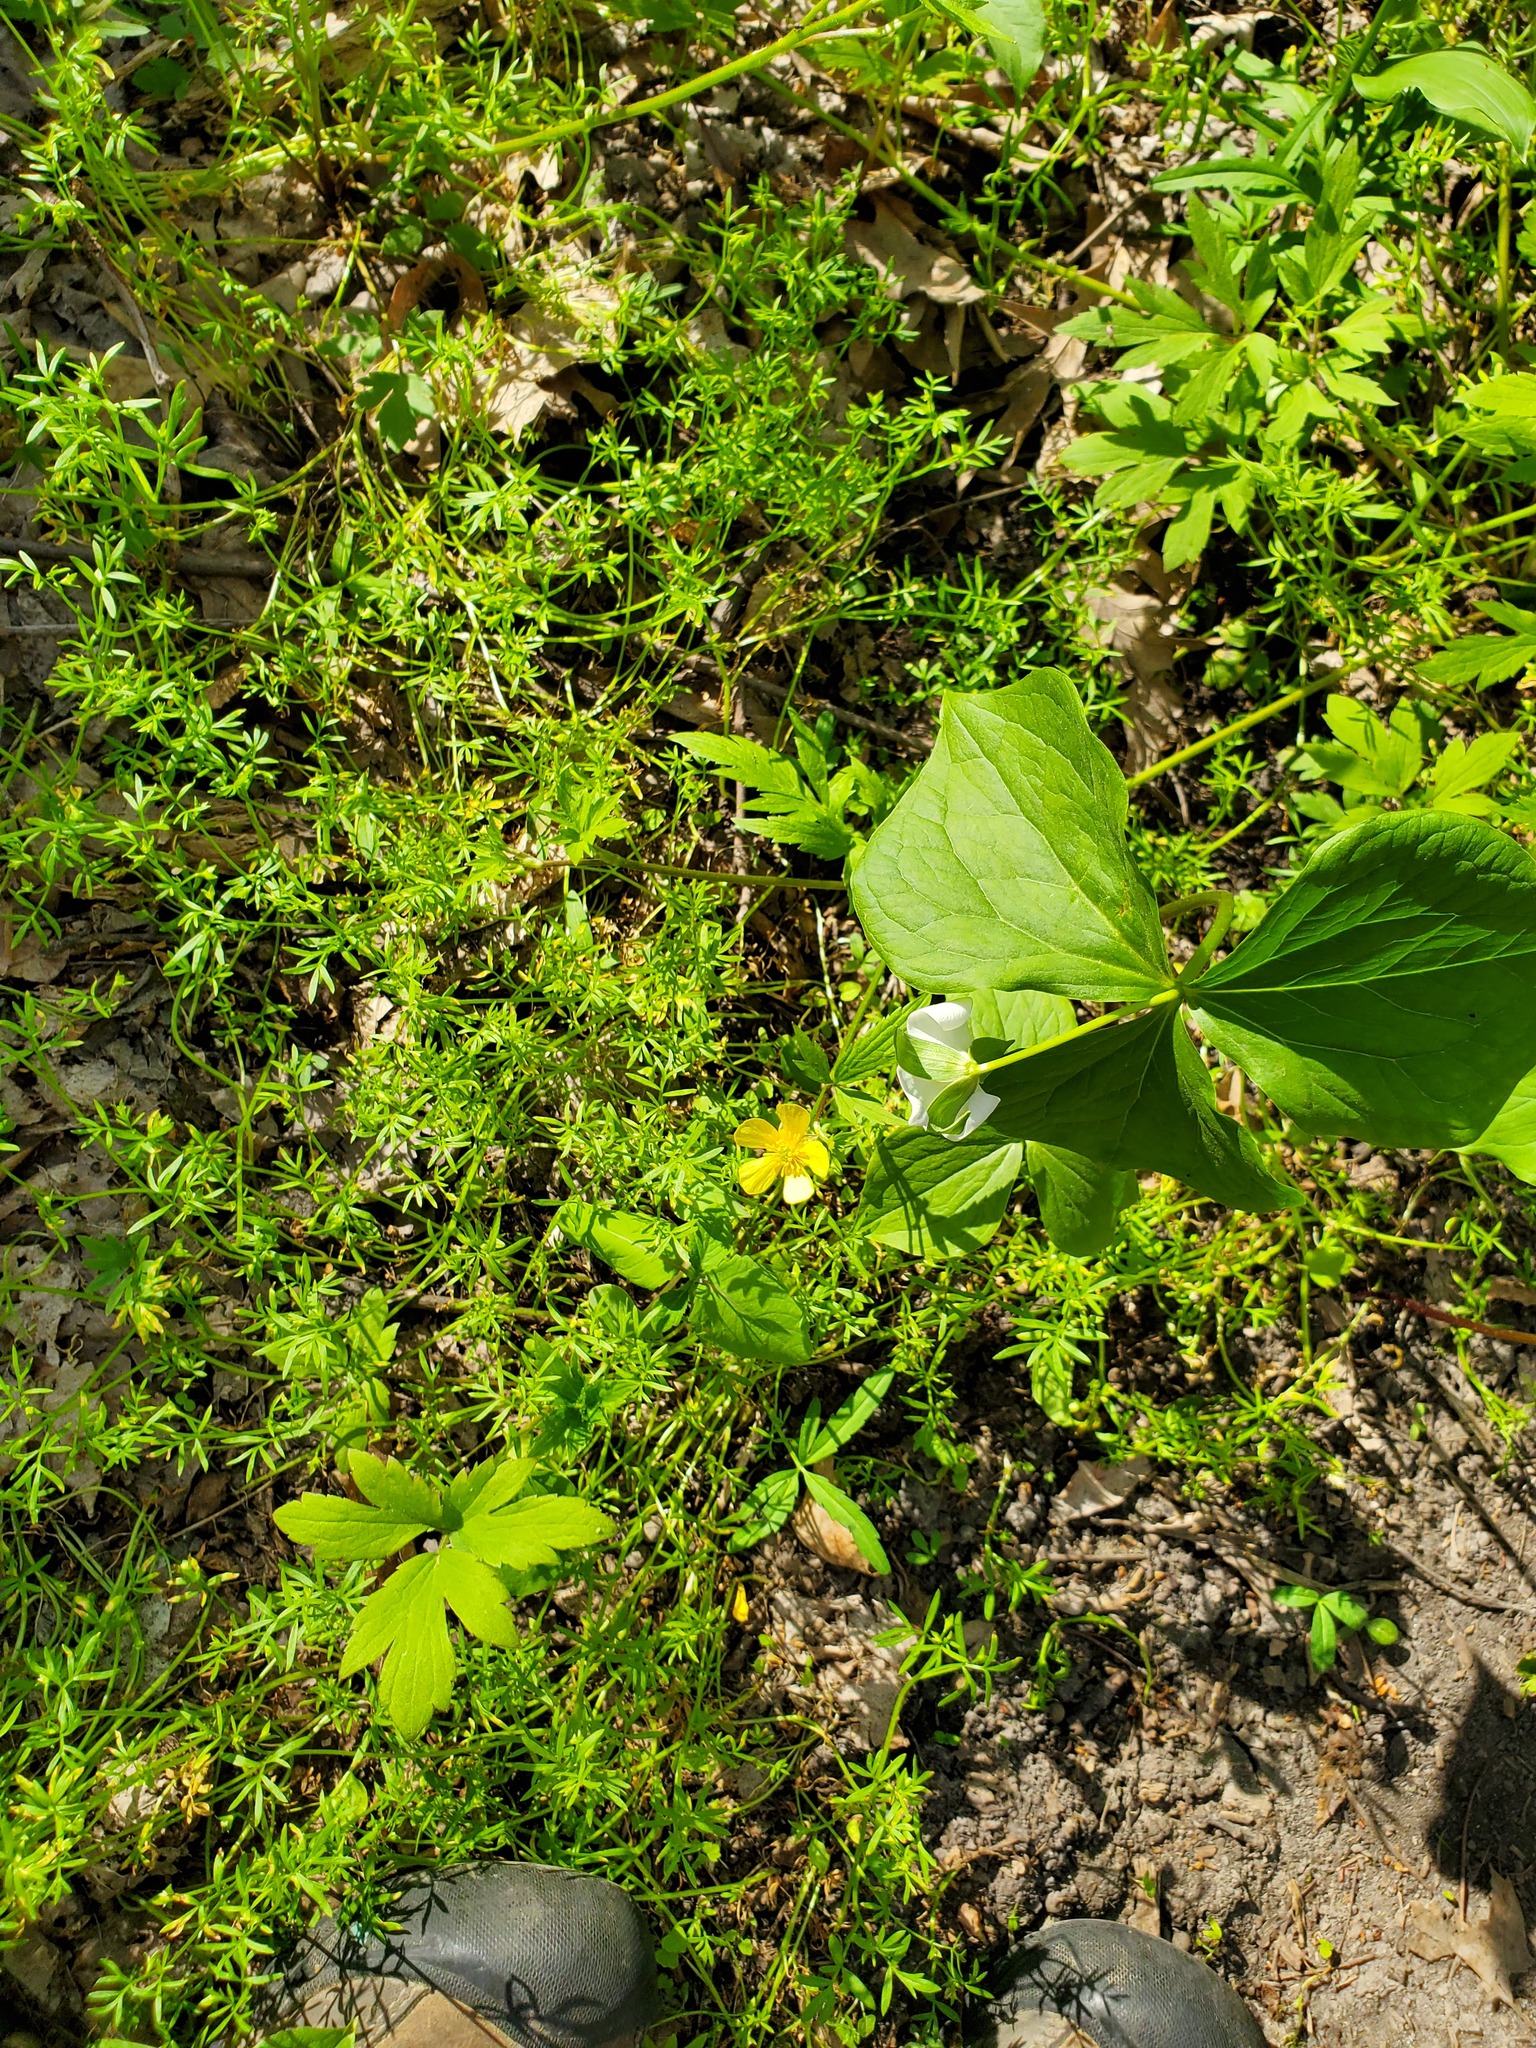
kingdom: Plantae
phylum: Tracheophyta
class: Liliopsida
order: Liliales
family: Melanthiaceae
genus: Trillium
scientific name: Trillium flexipes
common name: Drooping trillium
